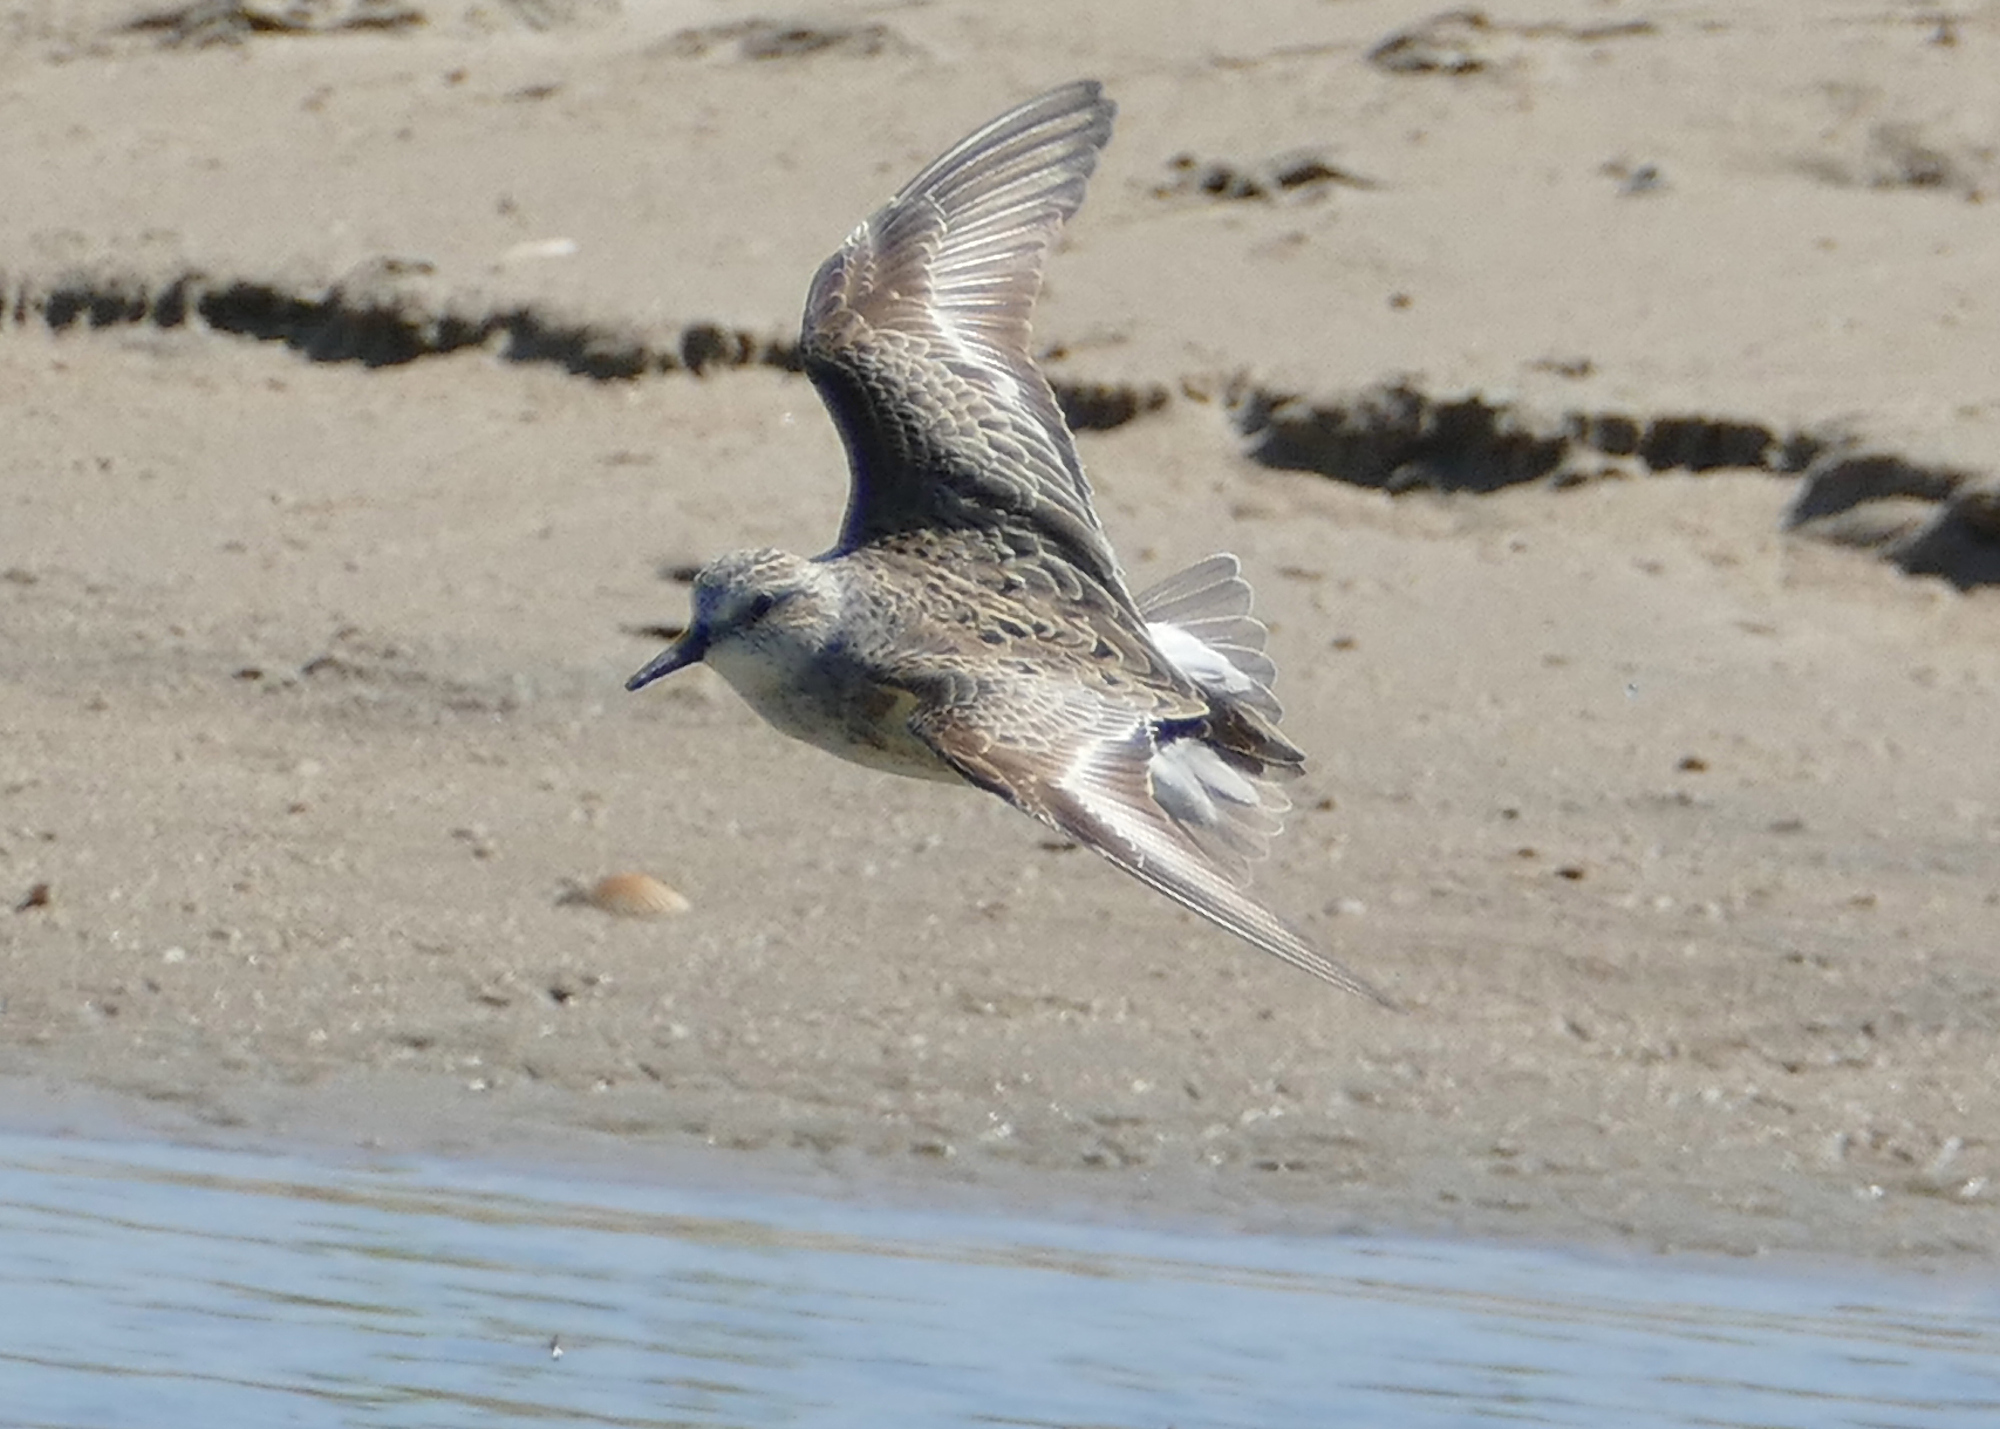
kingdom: Animalia
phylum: Chordata
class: Aves
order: Charadriiformes
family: Scolopacidae
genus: Calidris
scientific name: Calidris pusilla
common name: Semipalmated sandpiper
